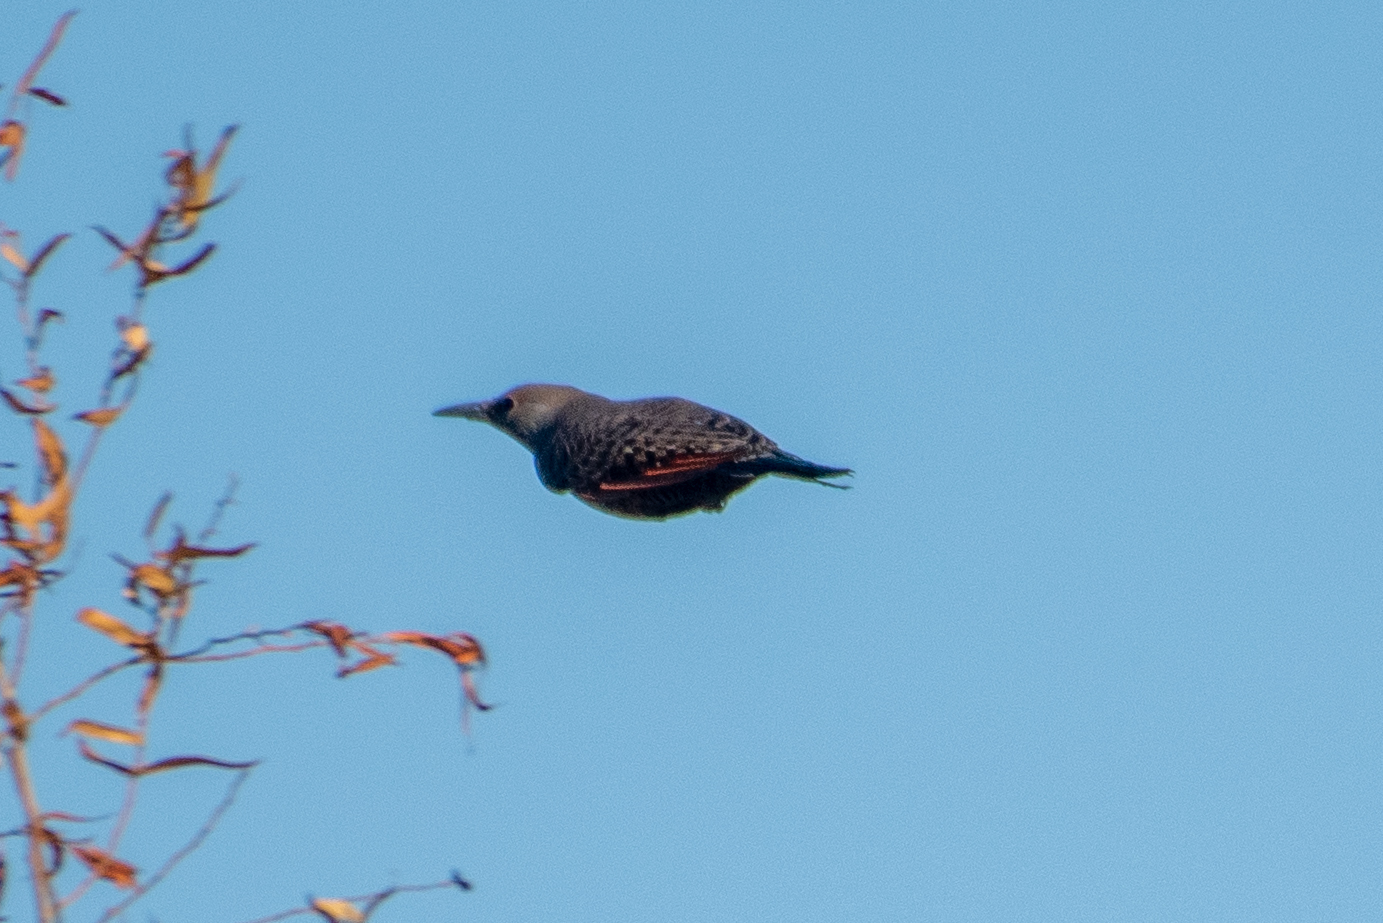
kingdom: Animalia
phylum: Chordata
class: Aves
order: Piciformes
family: Picidae
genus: Colaptes
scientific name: Colaptes auratus
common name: Northern flicker
